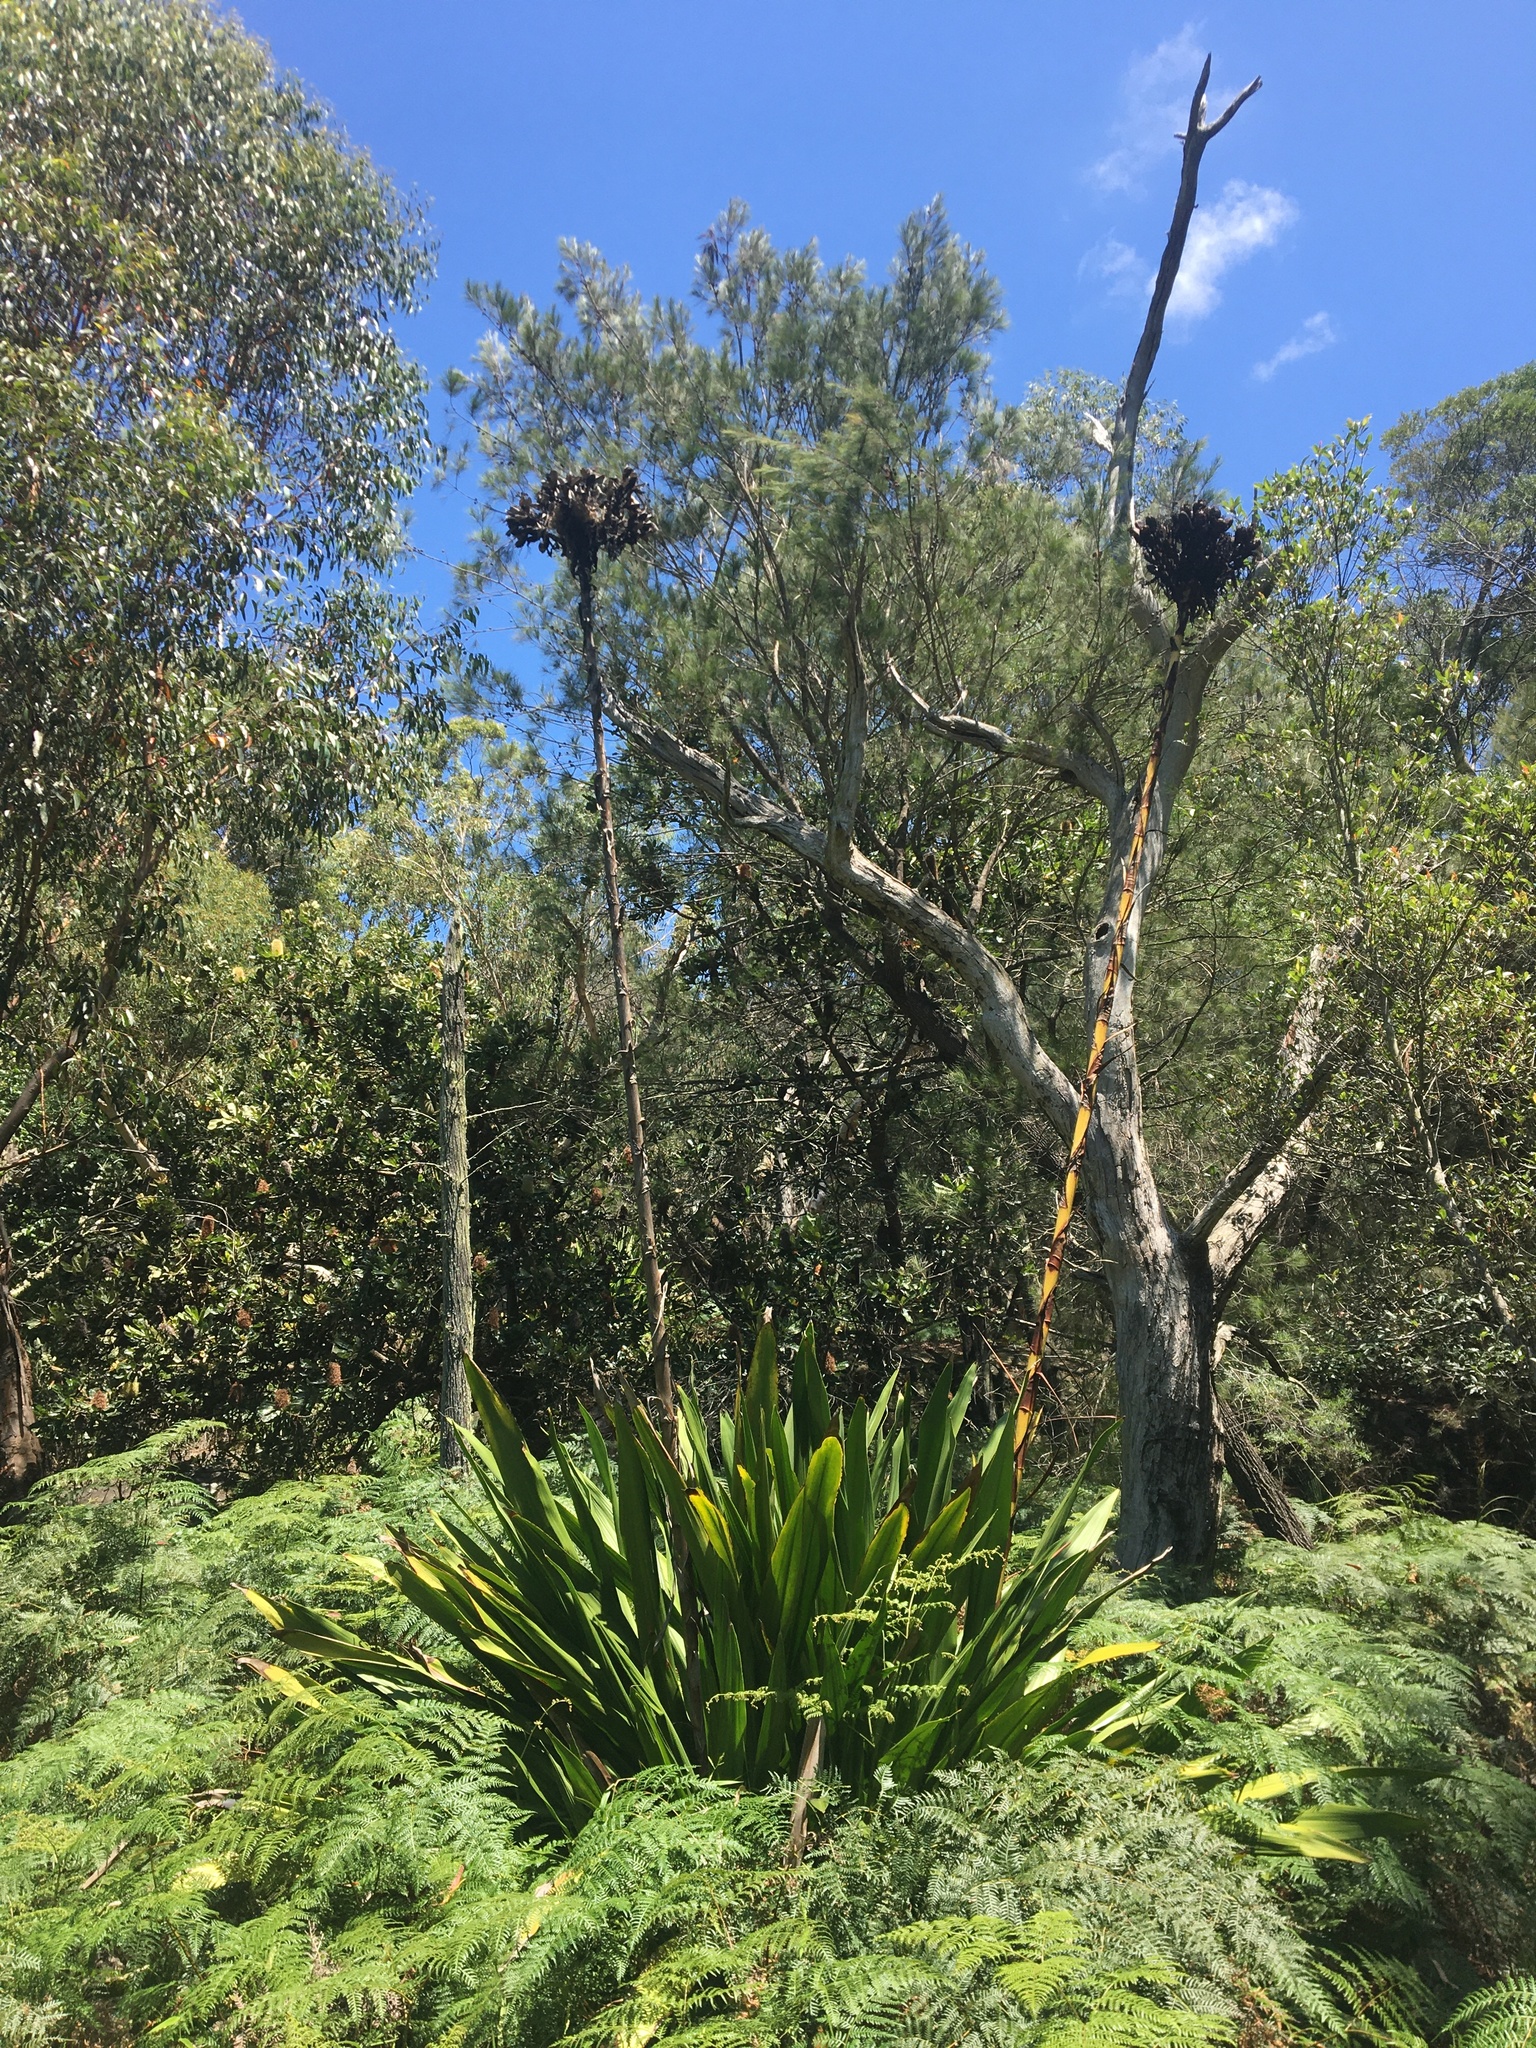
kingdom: Plantae
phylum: Tracheophyta
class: Liliopsida
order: Asparagales
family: Doryanthaceae
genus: Doryanthes
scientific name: Doryanthes excelsa
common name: Giant-lily
